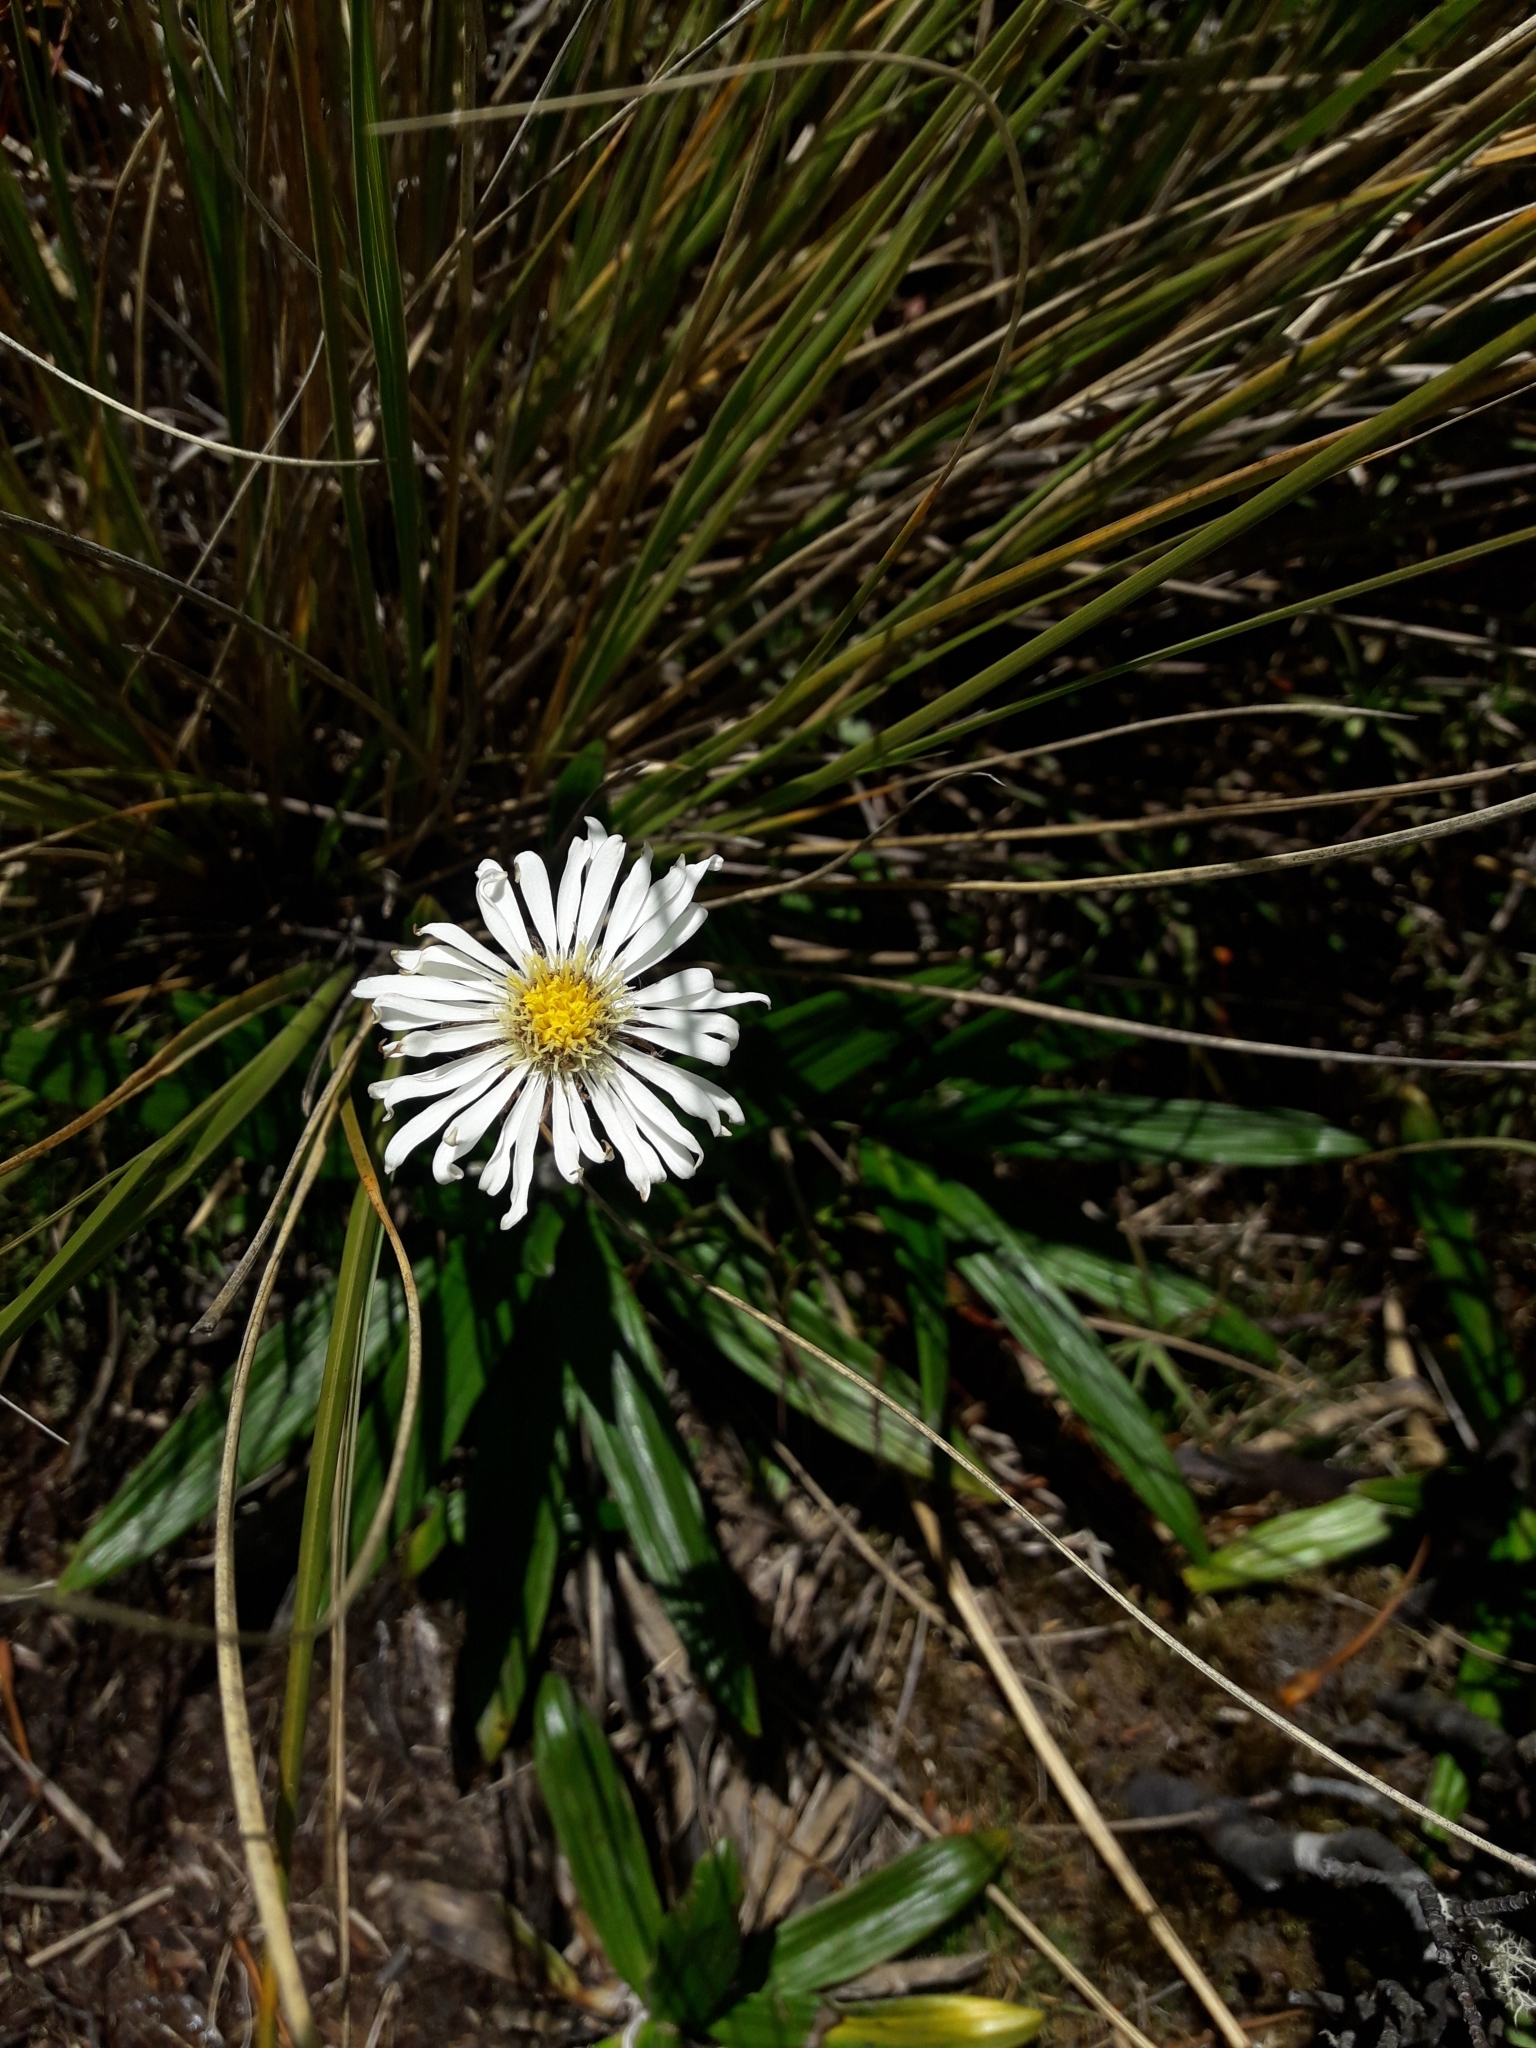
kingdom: Plantae
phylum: Tracheophyta
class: Magnoliopsida
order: Asterales
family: Asteraceae
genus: Celmisia
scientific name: Celmisia spectabilis
